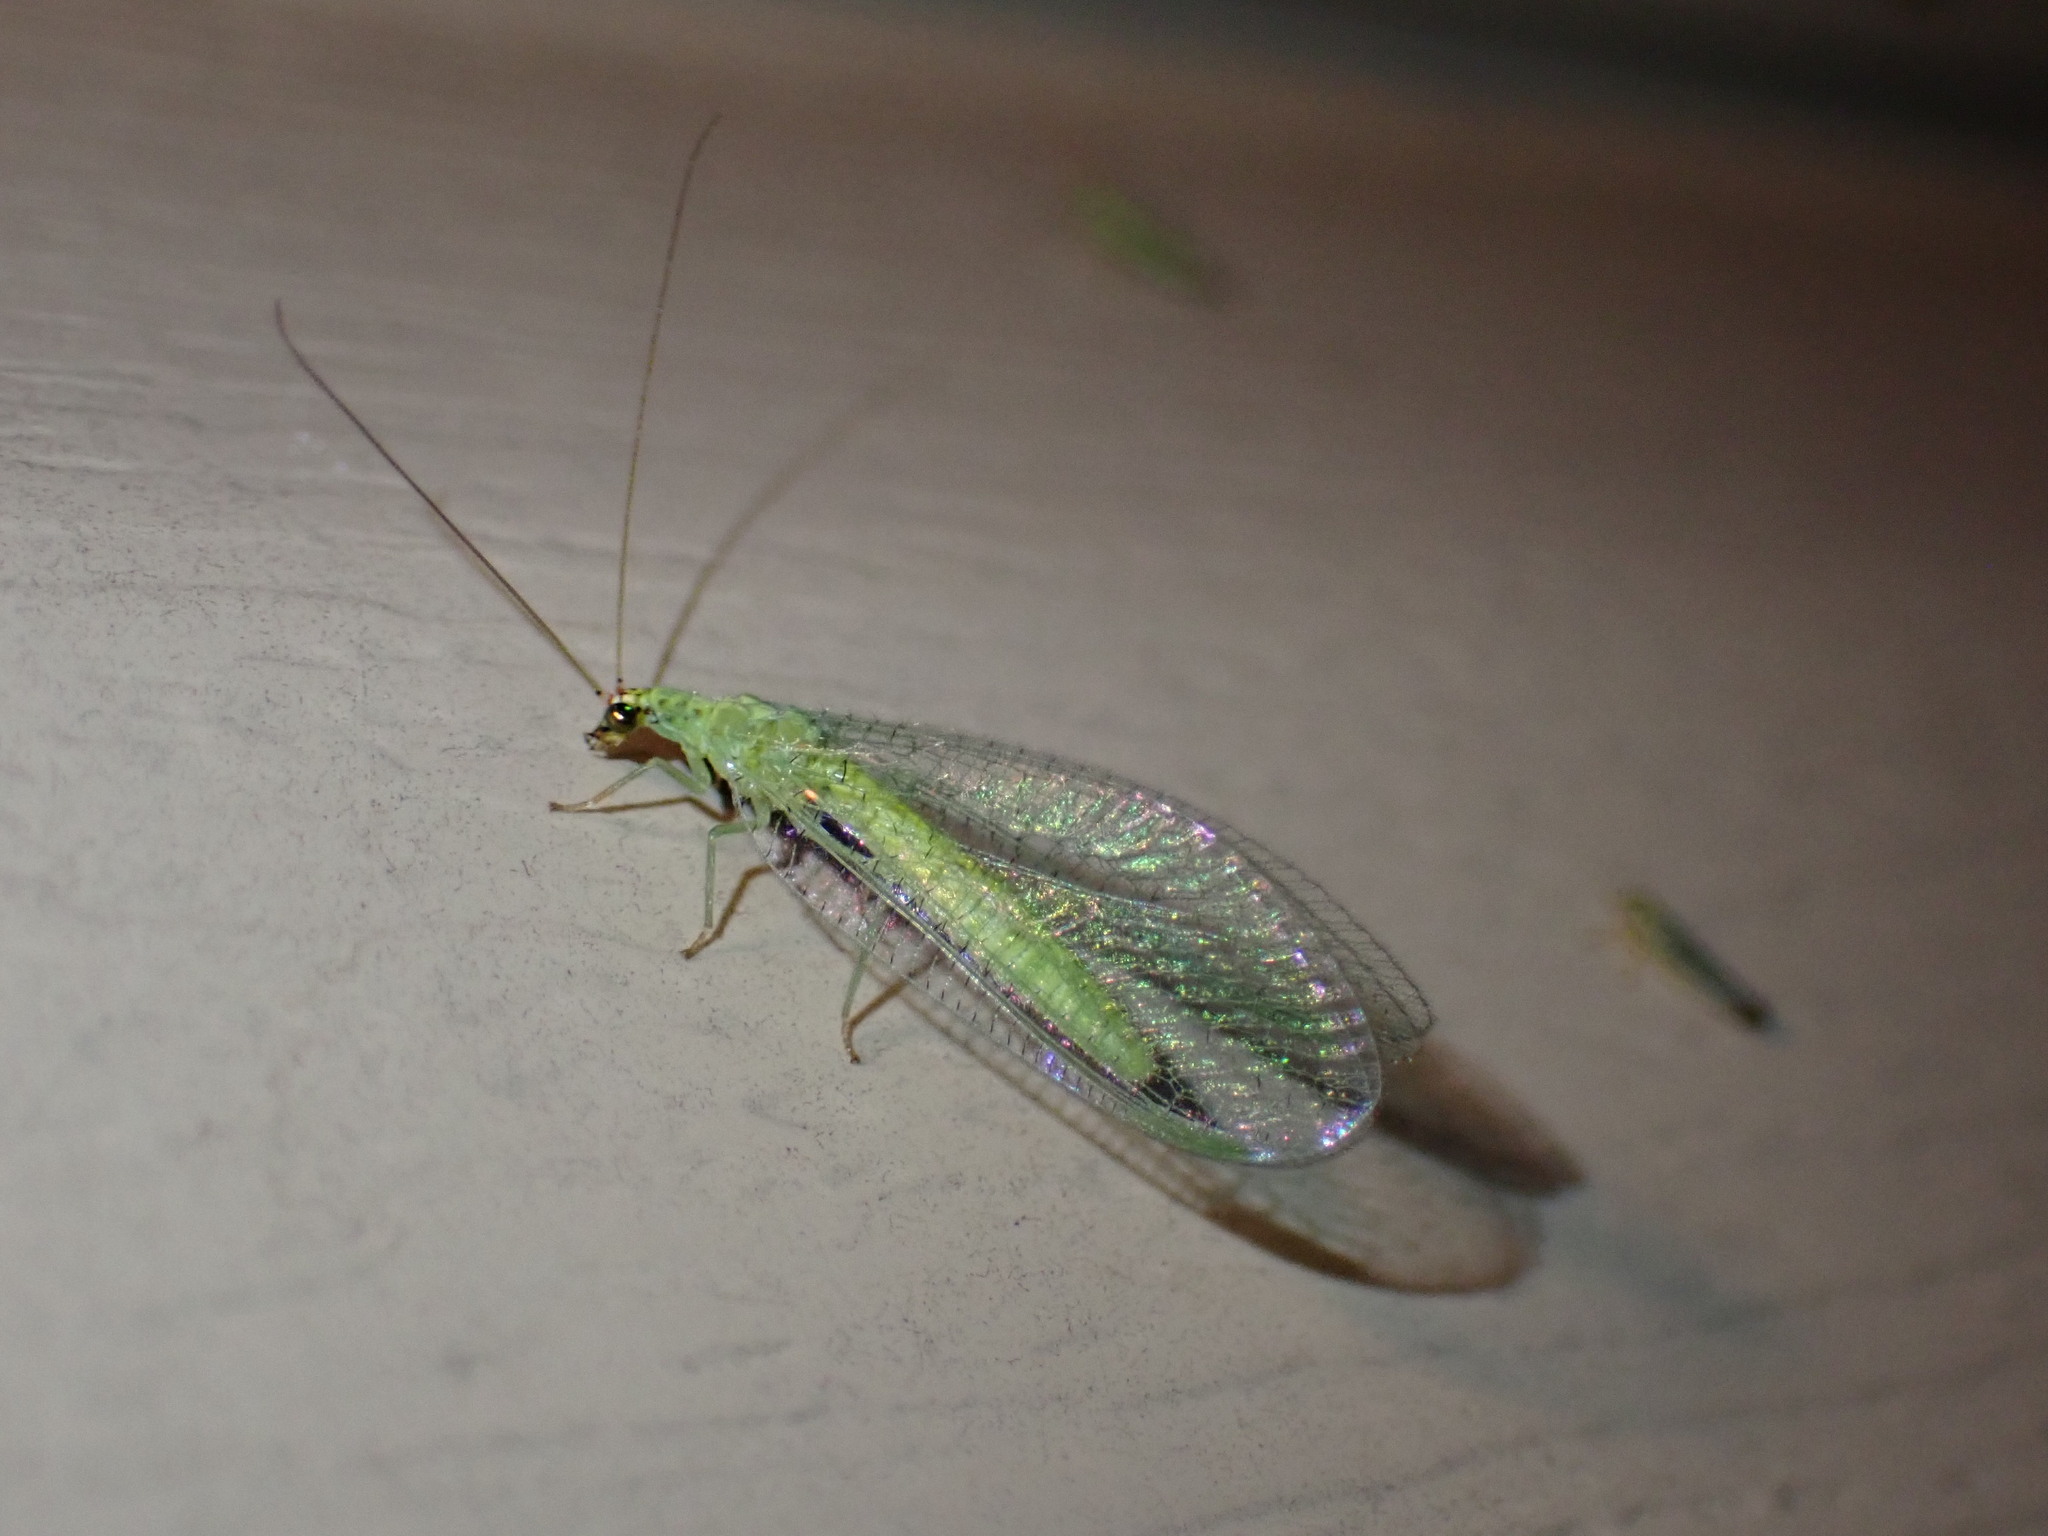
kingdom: Animalia
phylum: Arthropoda
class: Insecta
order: Neuroptera
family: Chrysopidae
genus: Chrysopa
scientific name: Chrysopa oculata
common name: Golden-eyed lacewing
